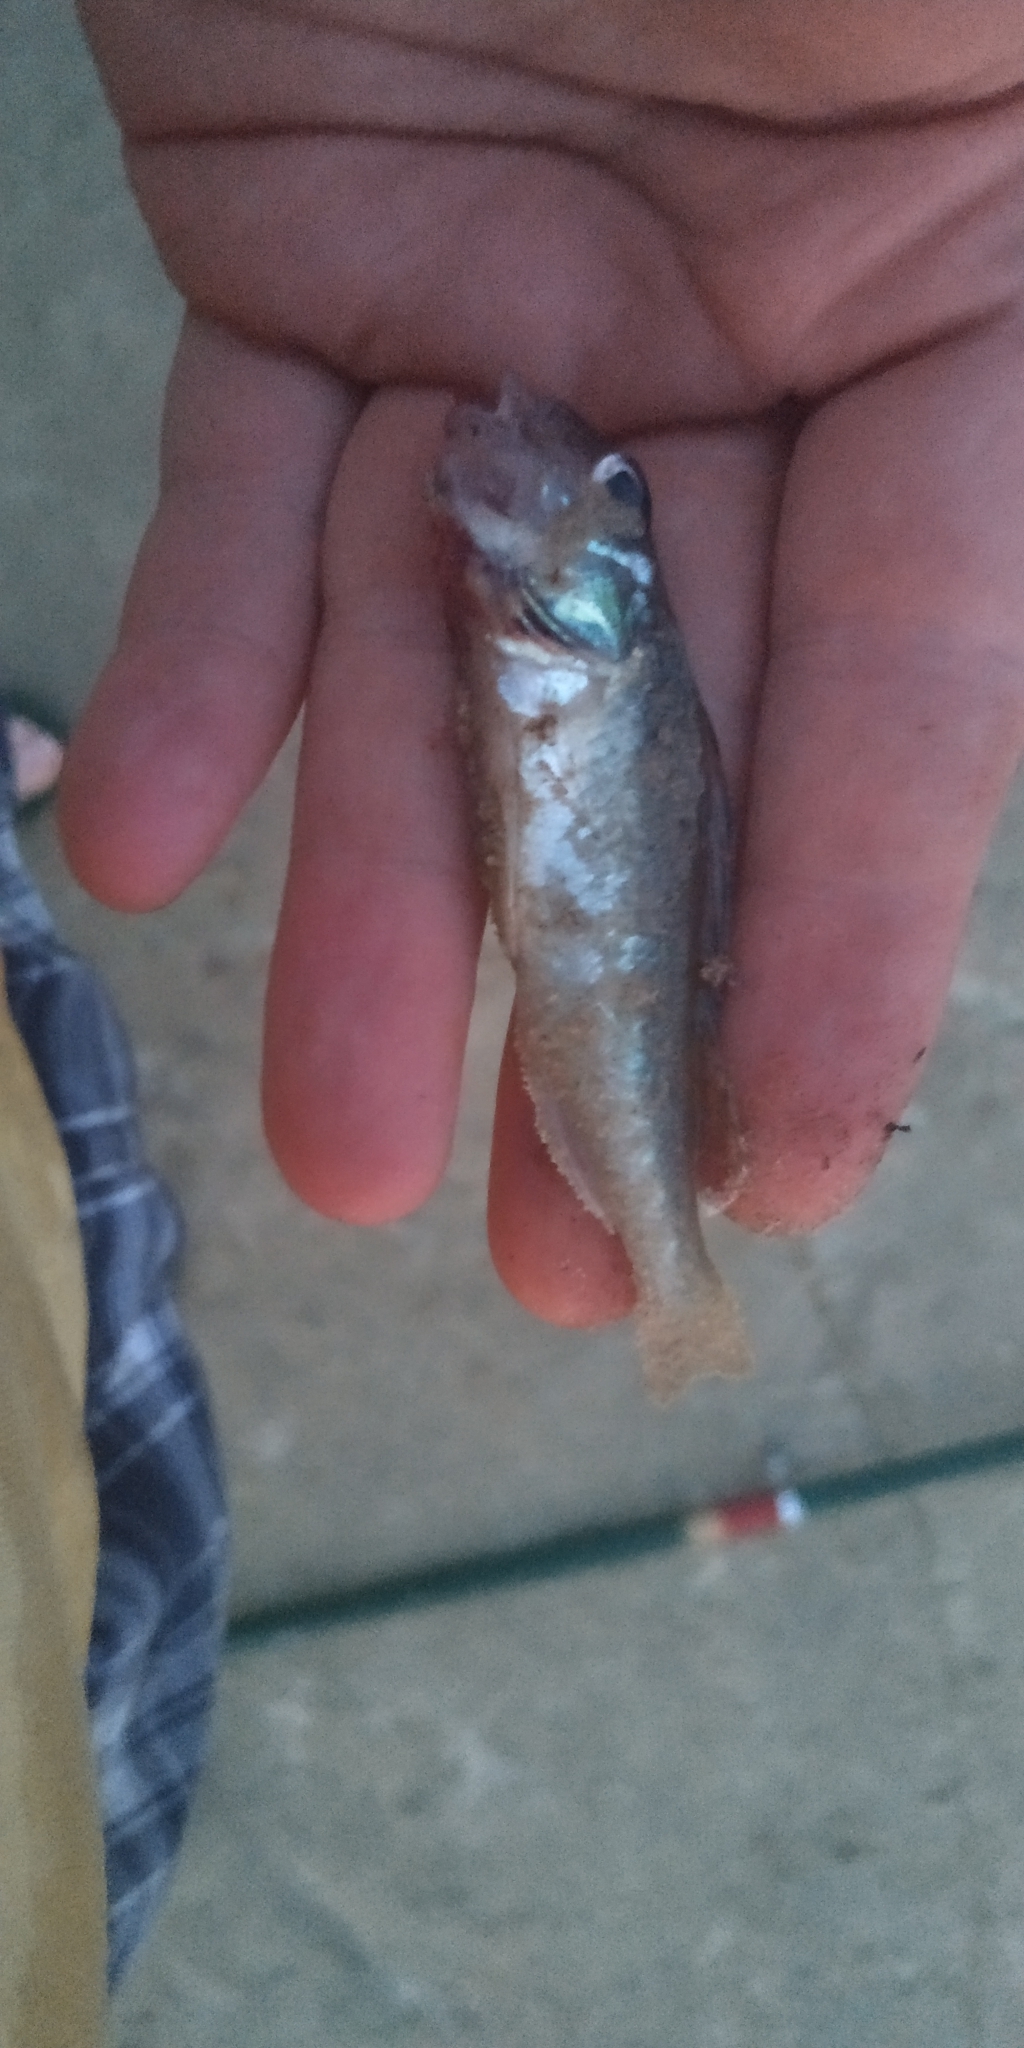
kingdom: Animalia
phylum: Chordata
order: Perciformes
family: Percidae
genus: Gymnocephalus
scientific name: Gymnocephalus cernua
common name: Ruffe
